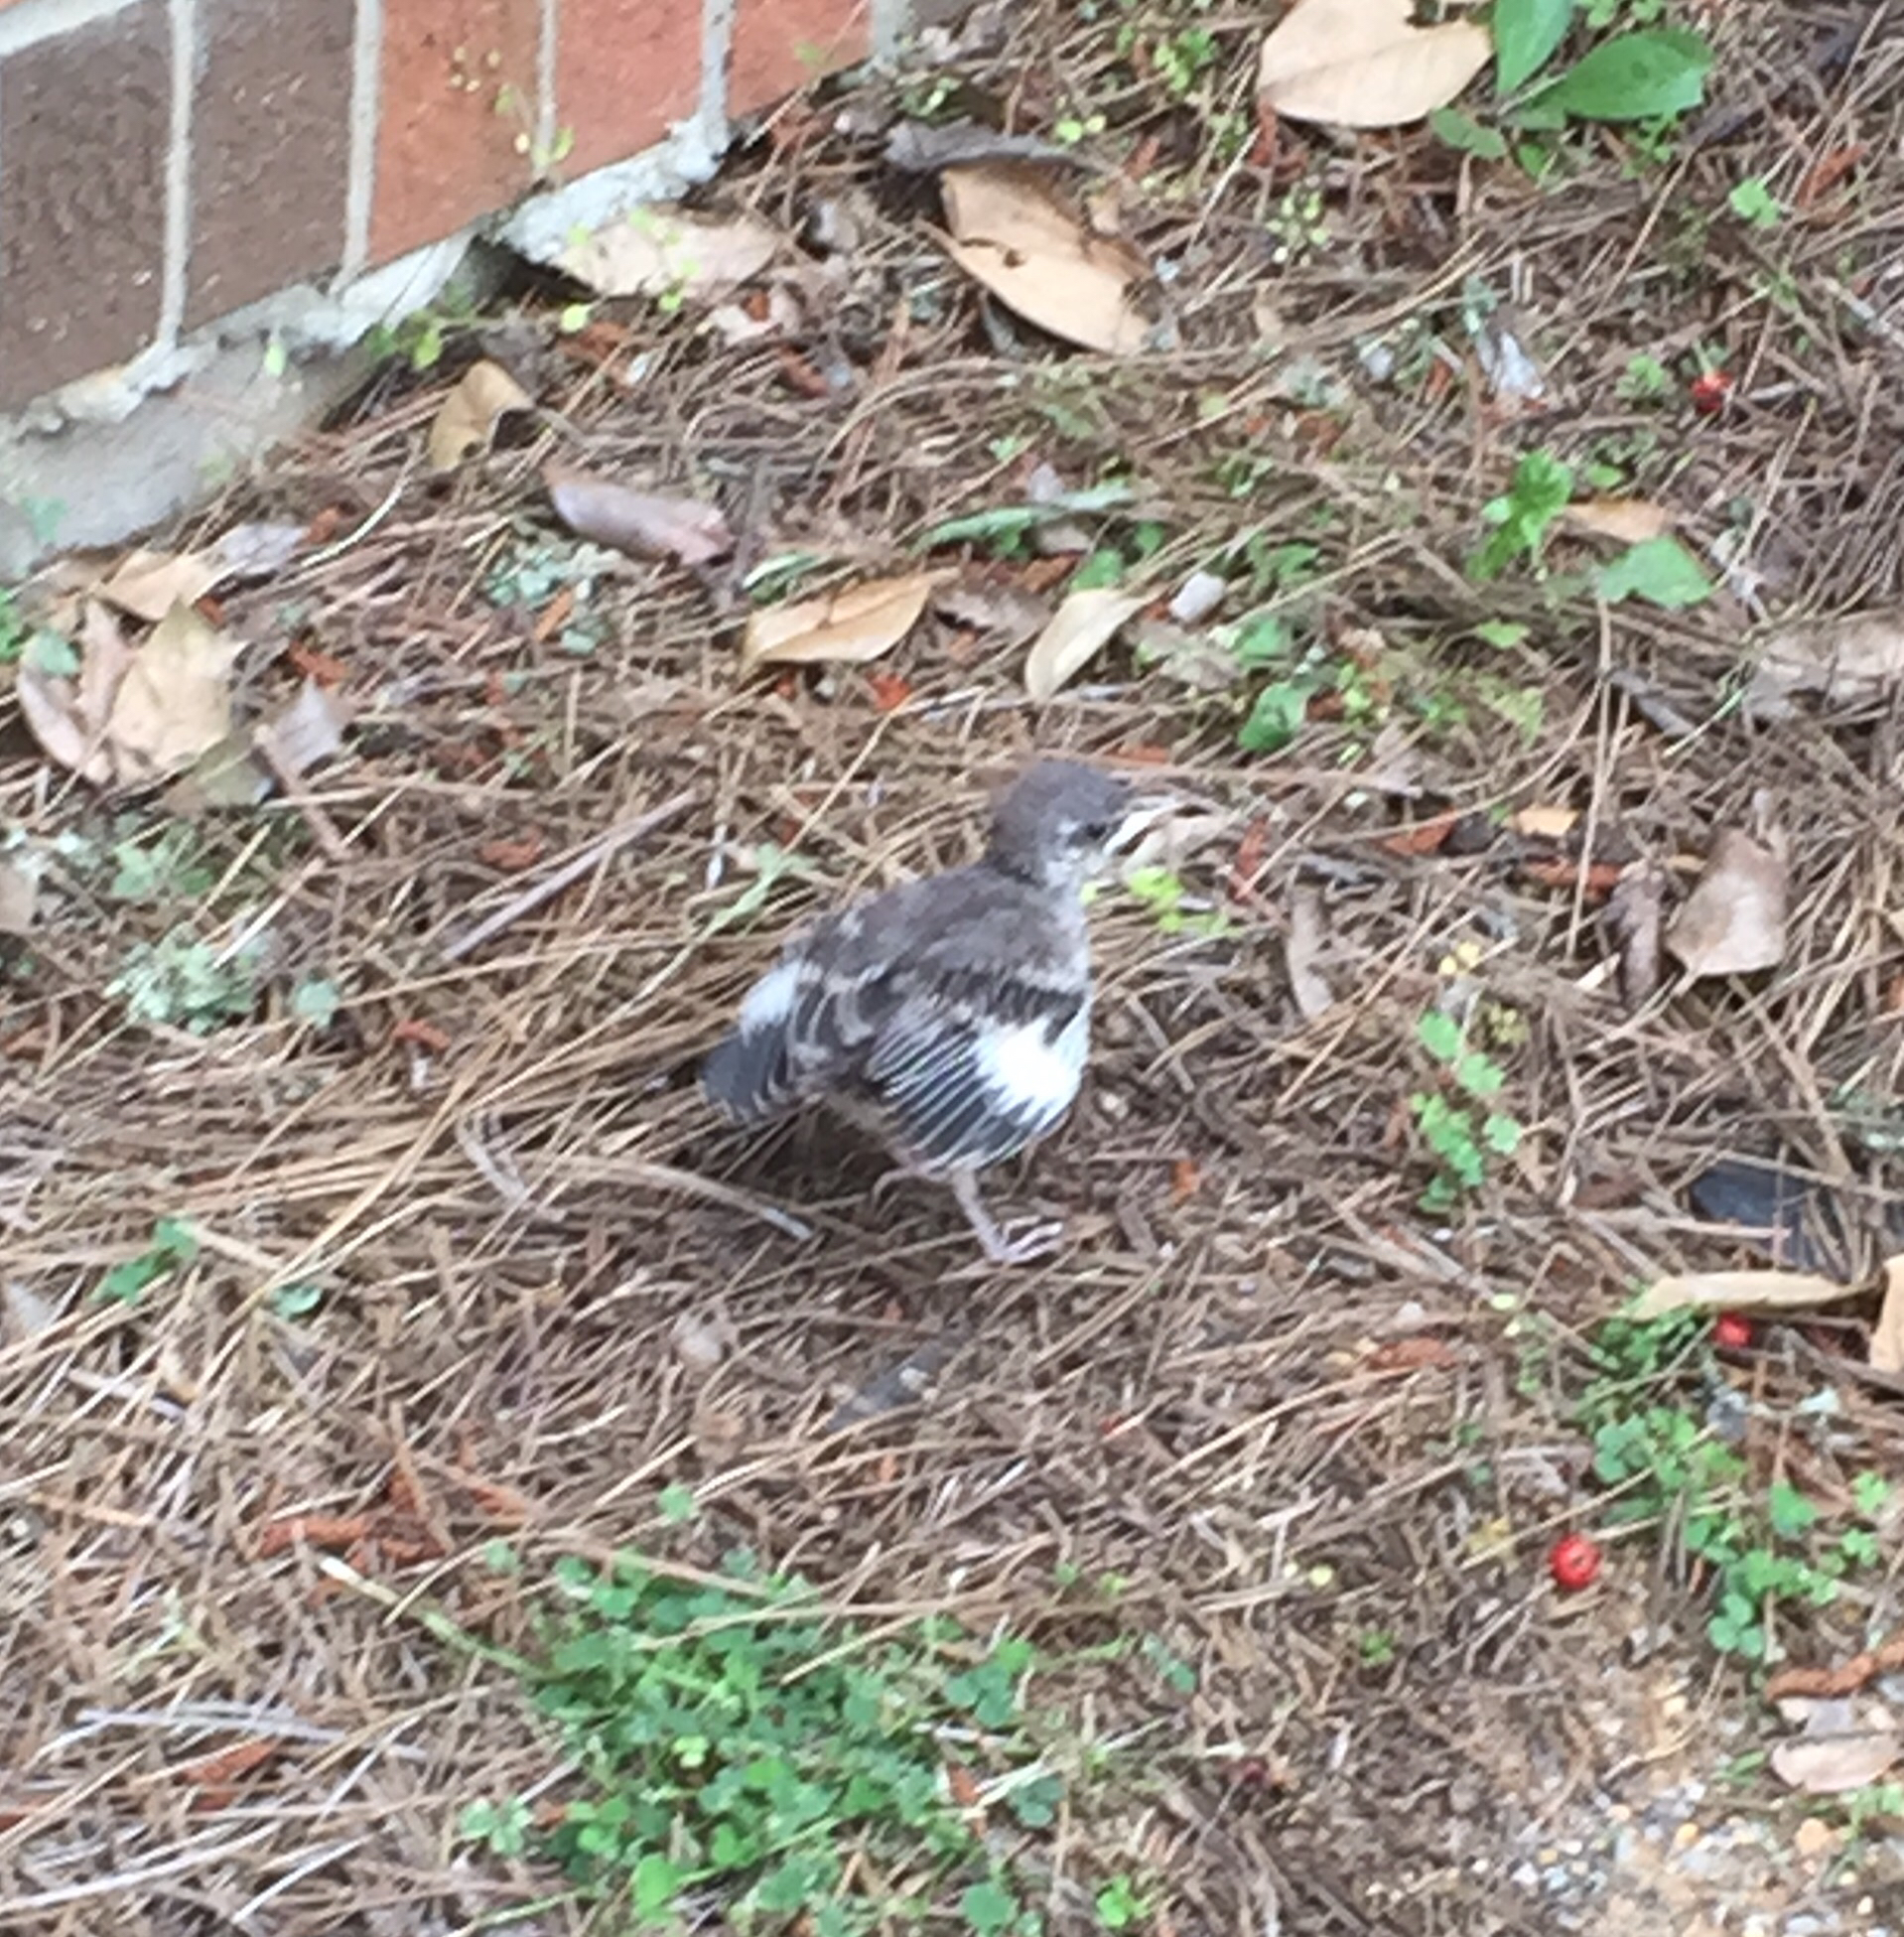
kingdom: Animalia
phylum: Chordata
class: Aves
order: Passeriformes
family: Mimidae
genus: Mimus
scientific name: Mimus polyglottos
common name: Northern mockingbird
